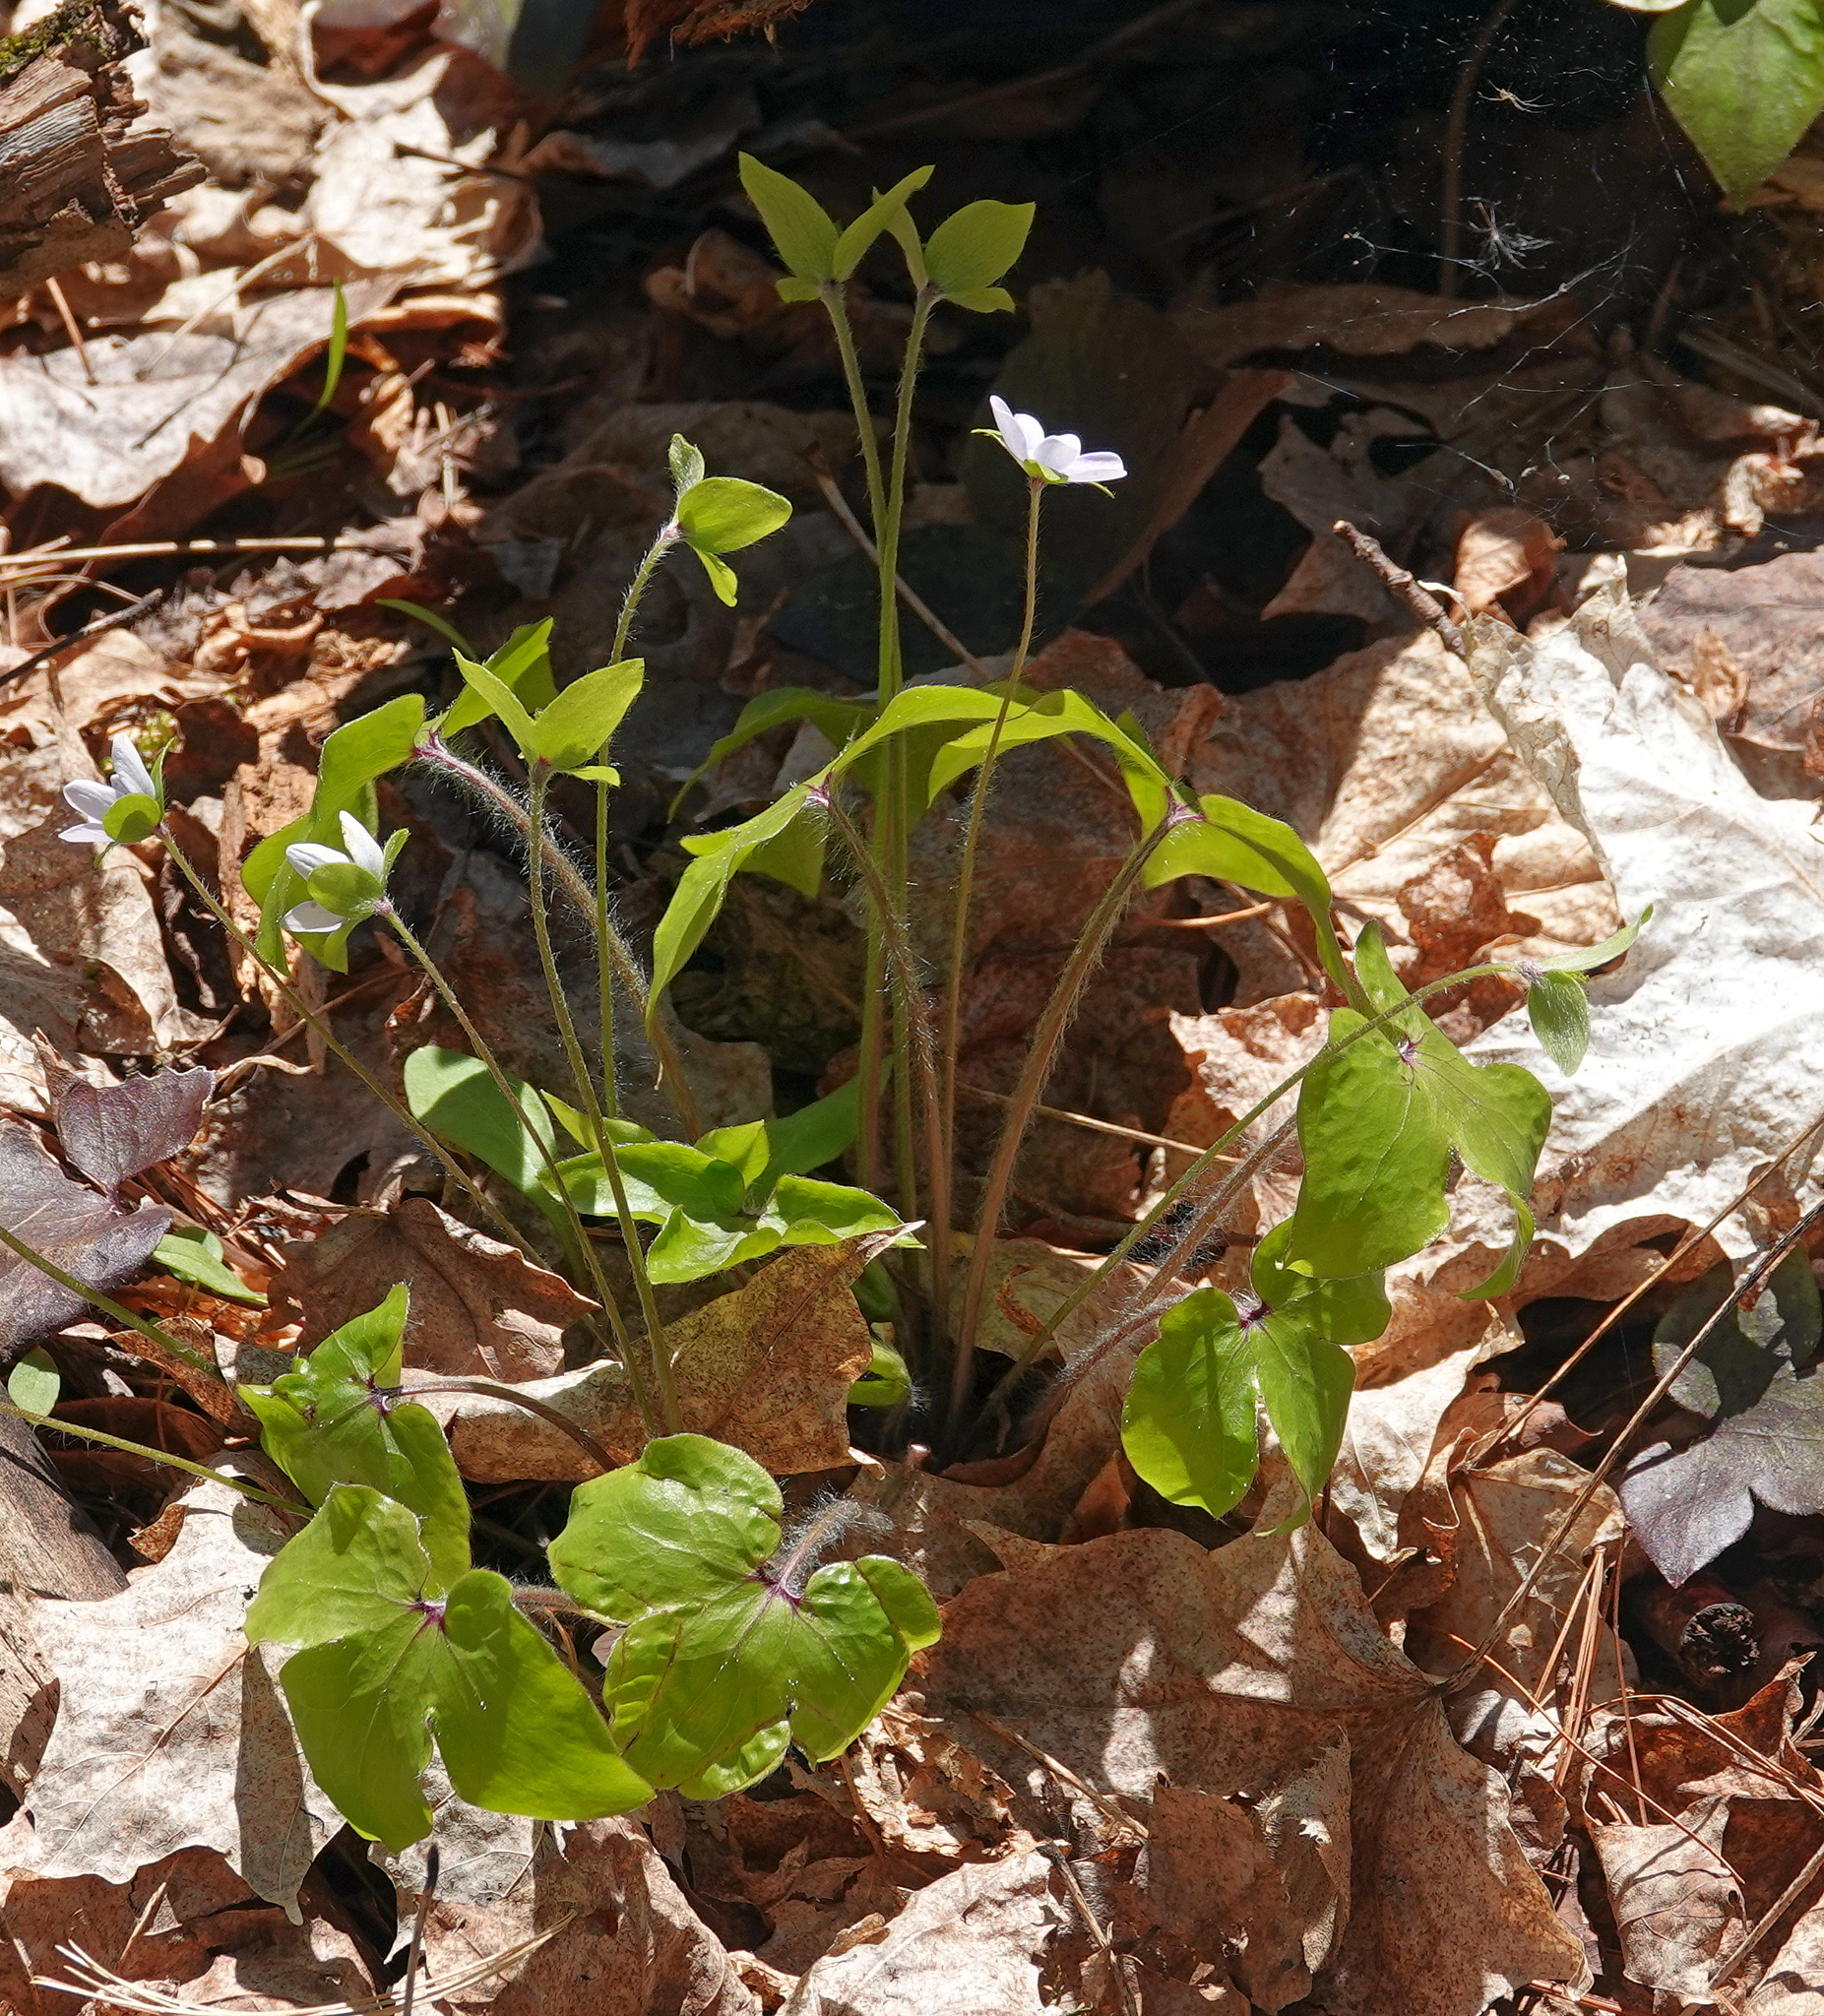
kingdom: Plantae
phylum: Tracheophyta
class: Magnoliopsida
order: Ranunculales
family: Ranunculaceae
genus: Hepatica
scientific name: Hepatica acutiloba
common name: Sharp-lobed hepatica
